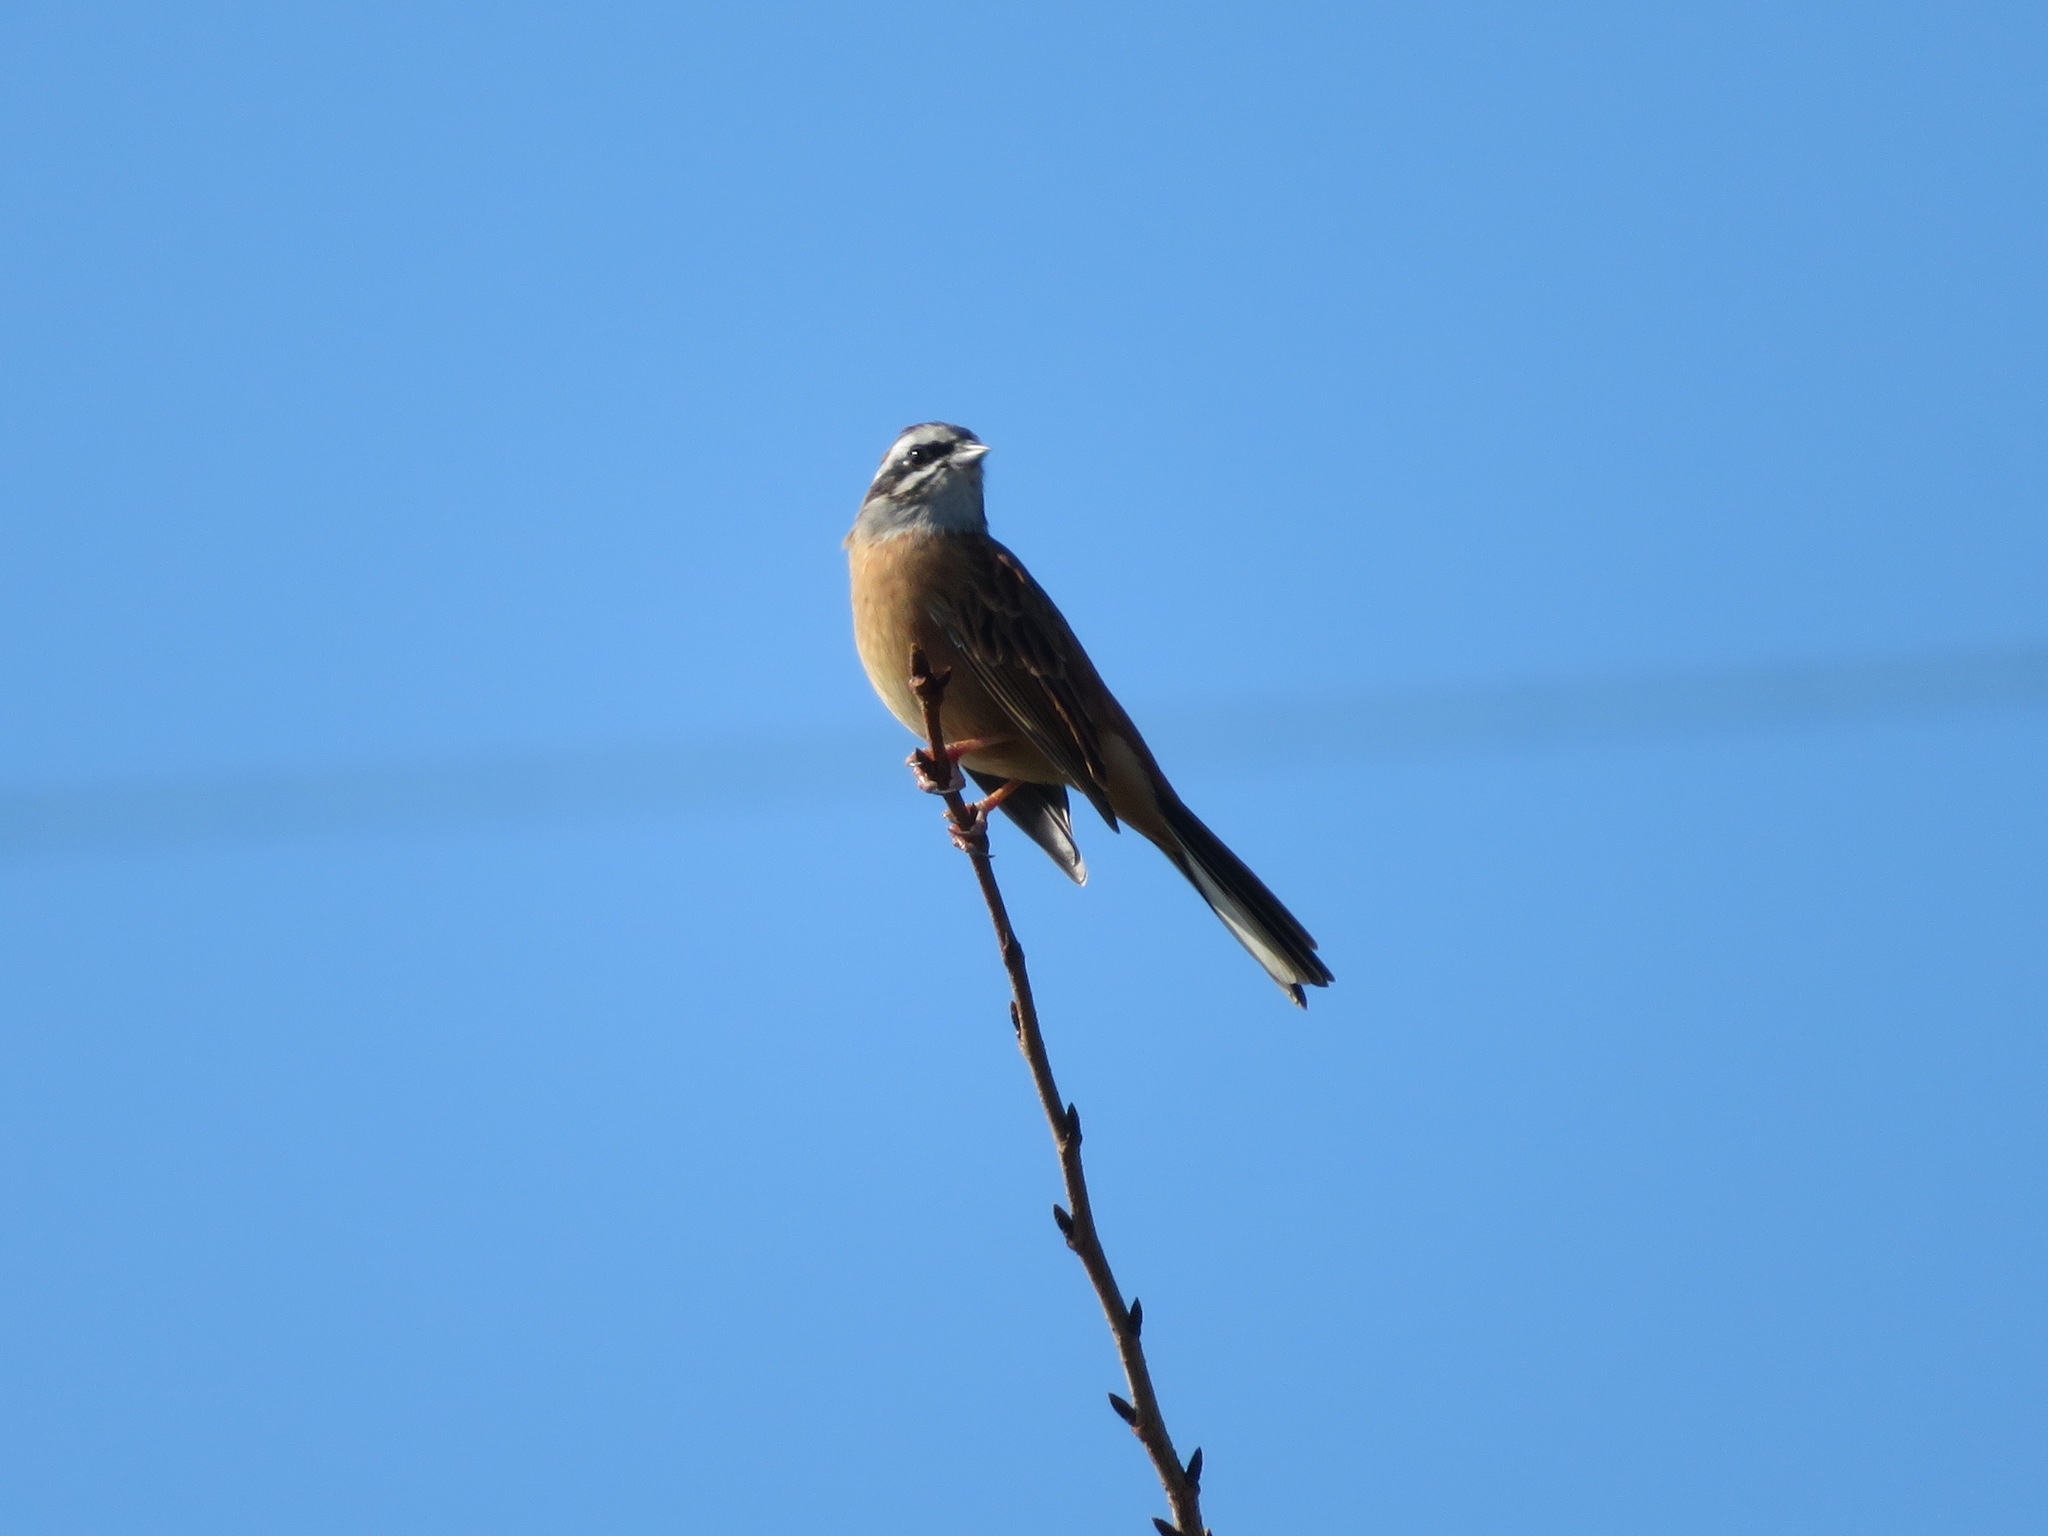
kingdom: Animalia
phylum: Chordata
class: Aves
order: Passeriformes
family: Emberizidae
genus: Emberiza
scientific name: Emberiza cioides
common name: Meadow bunting
